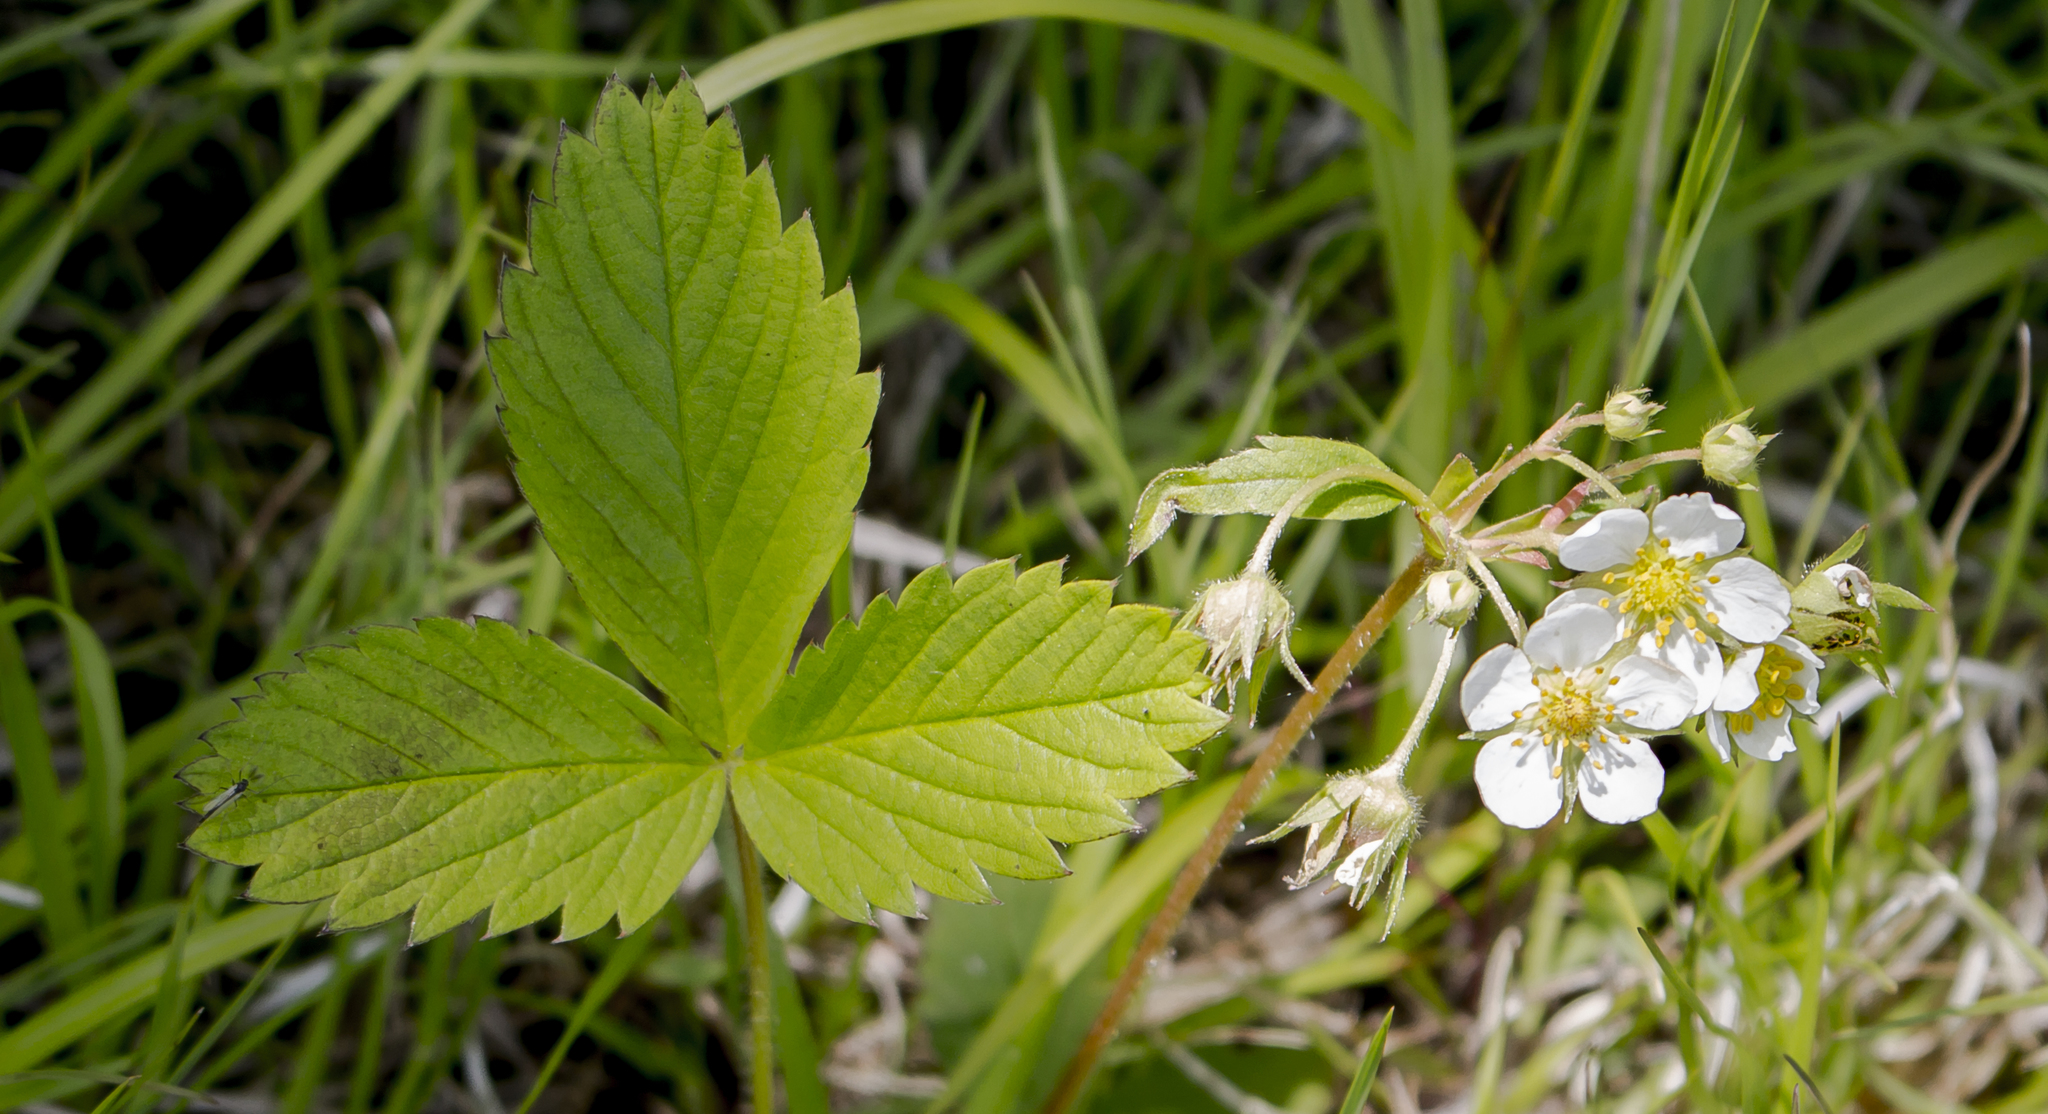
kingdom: Plantae
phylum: Tracheophyta
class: Magnoliopsida
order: Rosales
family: Rosaceae
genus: Fragaria
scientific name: Fragaria virginiana
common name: Thickleaved wild strawberry
